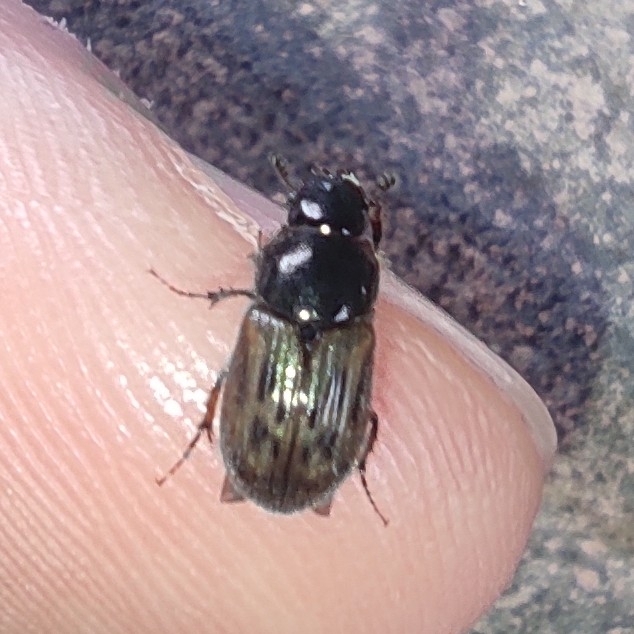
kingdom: Animalia
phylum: Arthropoda
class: Insecta
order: Coleoptera
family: Scarabaeidae
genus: Nimbus
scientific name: Nimbus contaminatus
